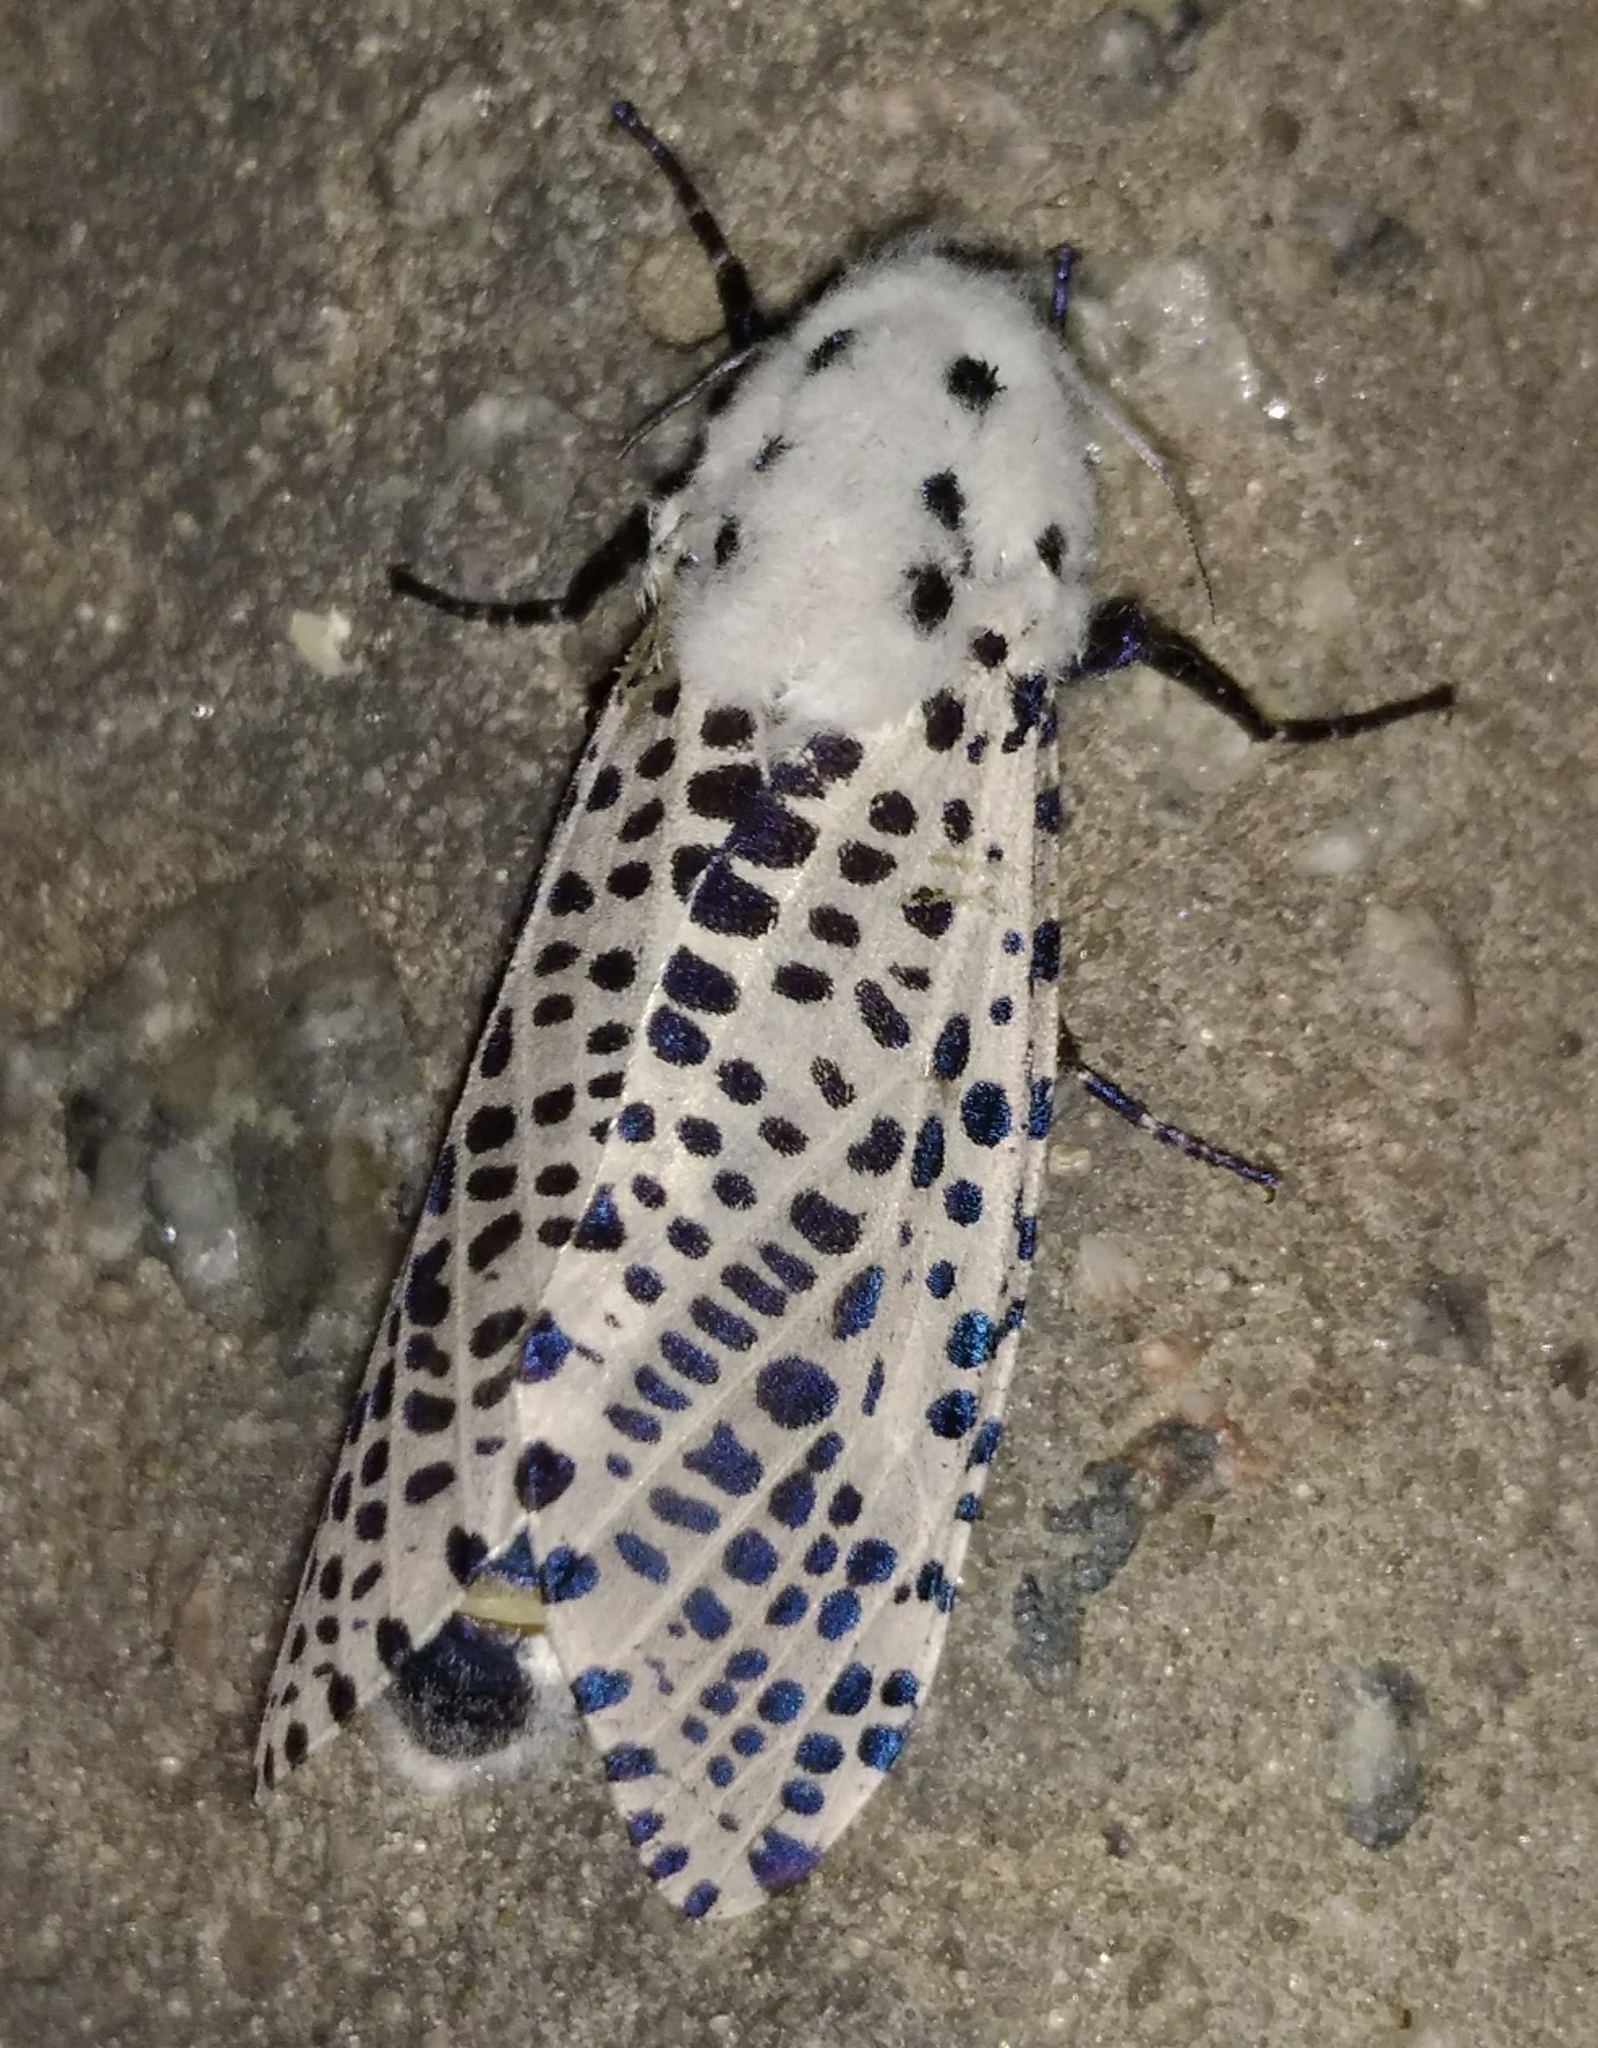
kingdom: Animalia
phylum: Arthropoda
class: Insecta
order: Lepidoptera
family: Cossidae
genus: Zeuzera
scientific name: Zeuzera pyrina
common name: Leopard moth
